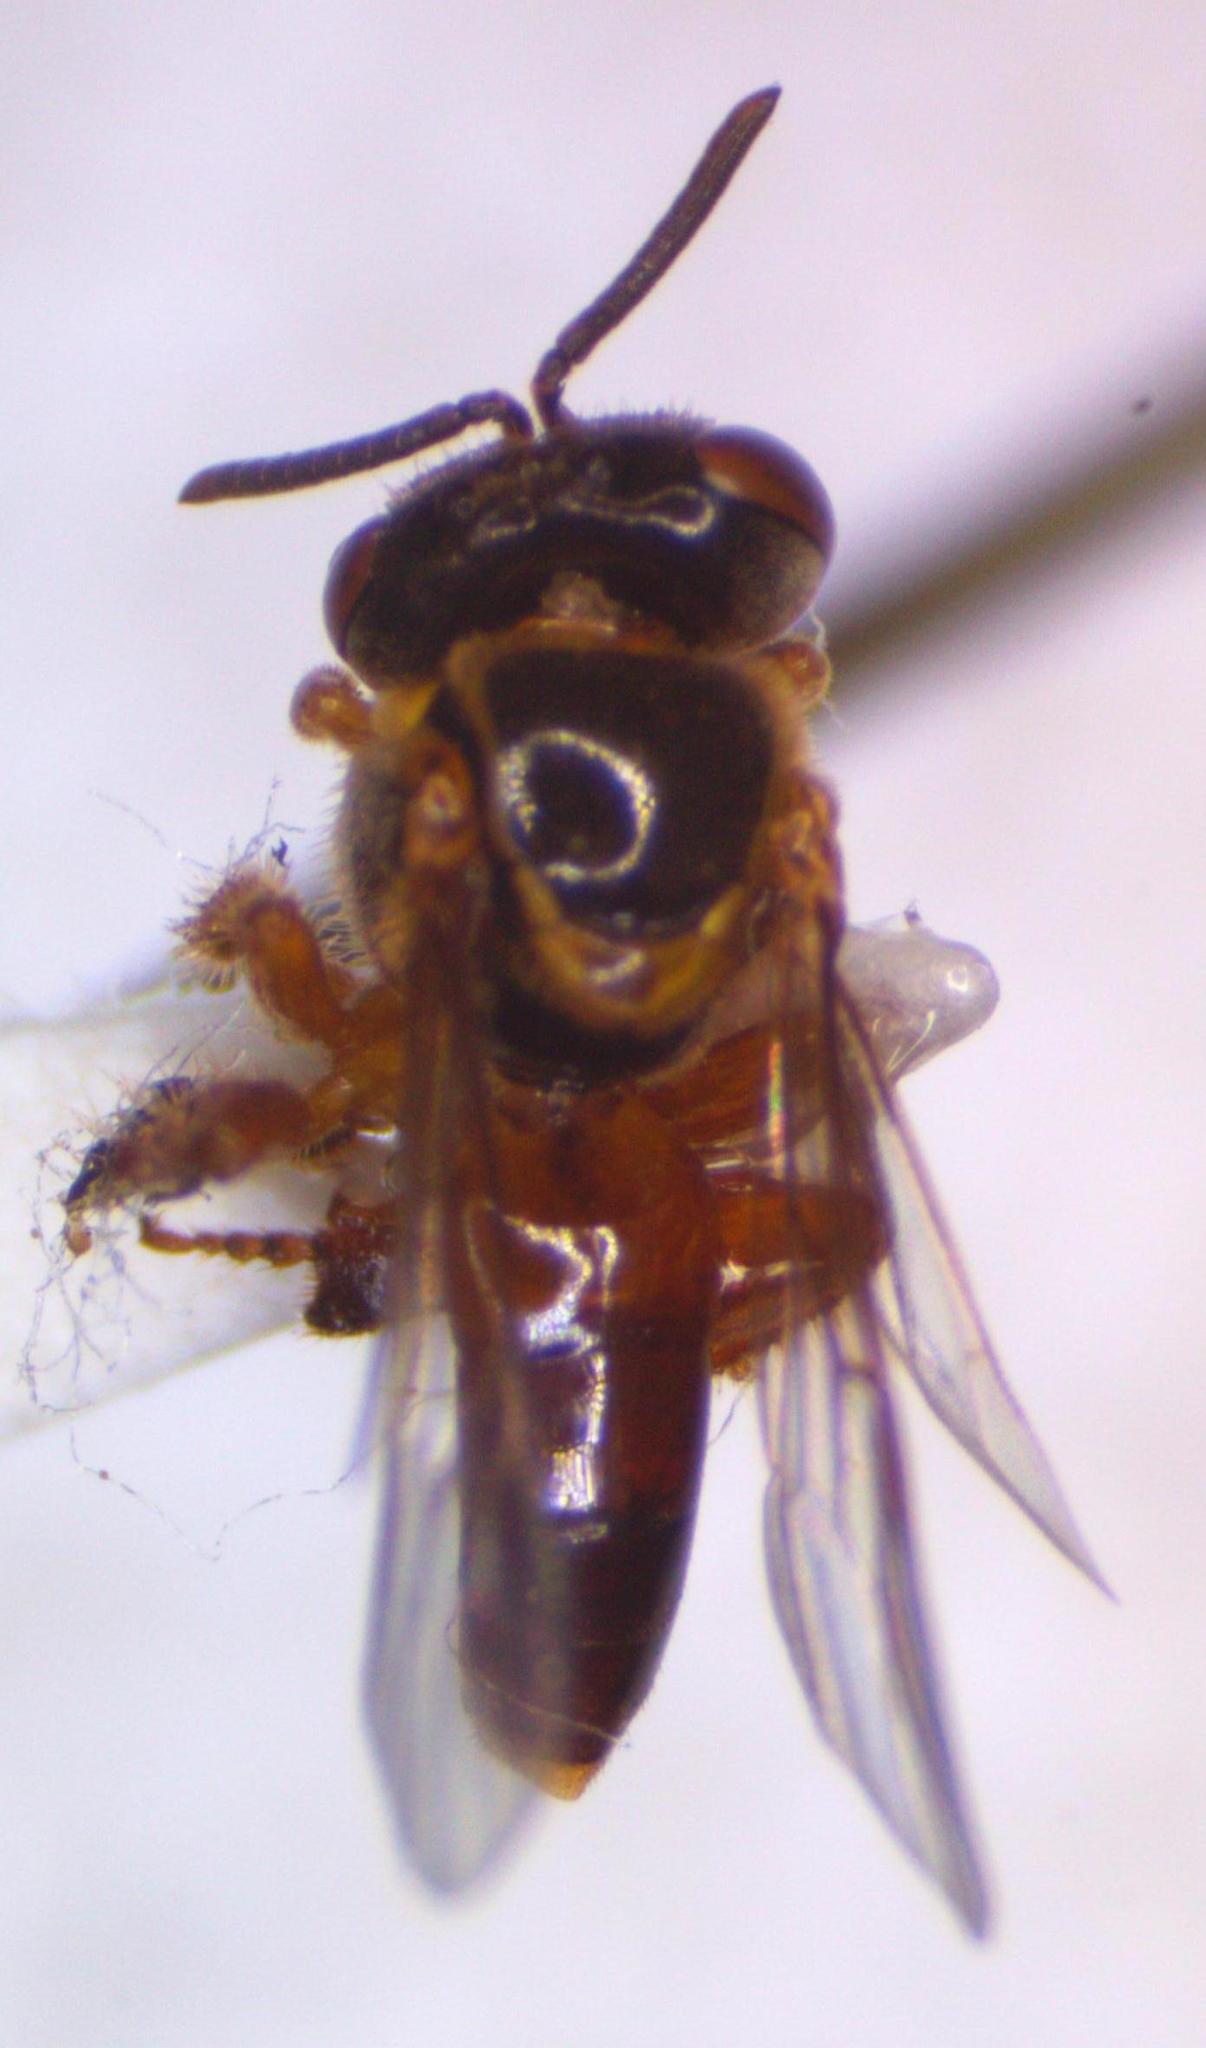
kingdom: Animalia
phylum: Arthropoda
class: Insecta
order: Hymenoptera
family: Apidae
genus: Tetragonisca
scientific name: Tetragonisca angustula
